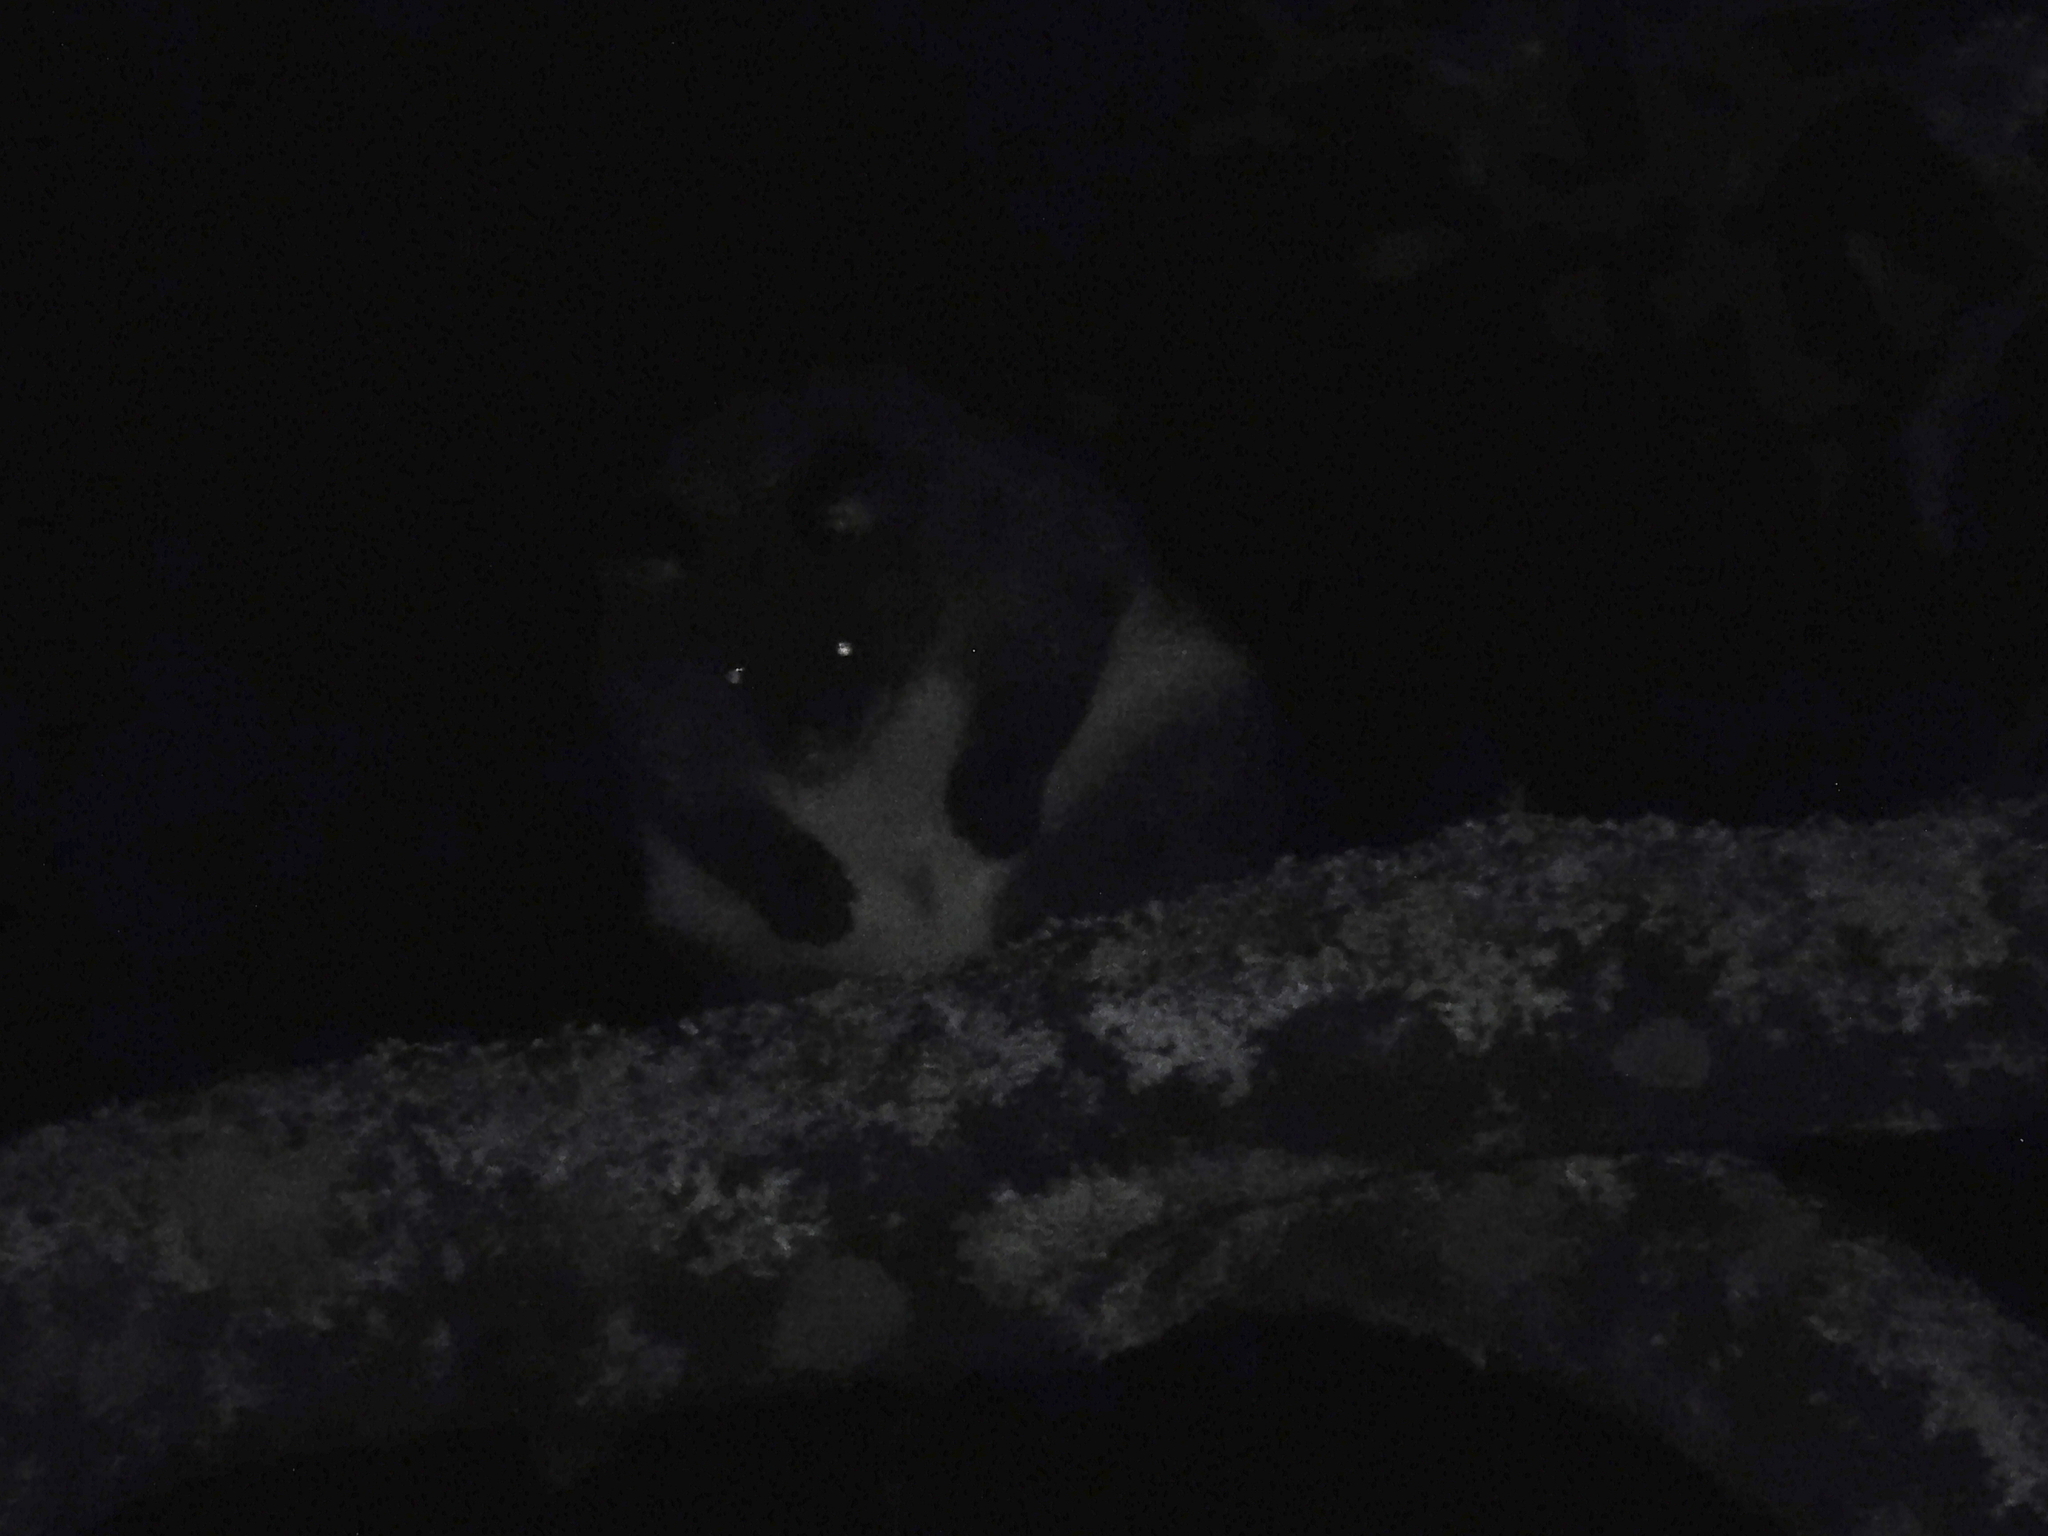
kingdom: Animalia
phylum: Chordata
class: Mammalia
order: Diprotodontia
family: Phalangeridae
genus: Trichosurus
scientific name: Trichosurus cunninghami
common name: Mountain brushtail possum
